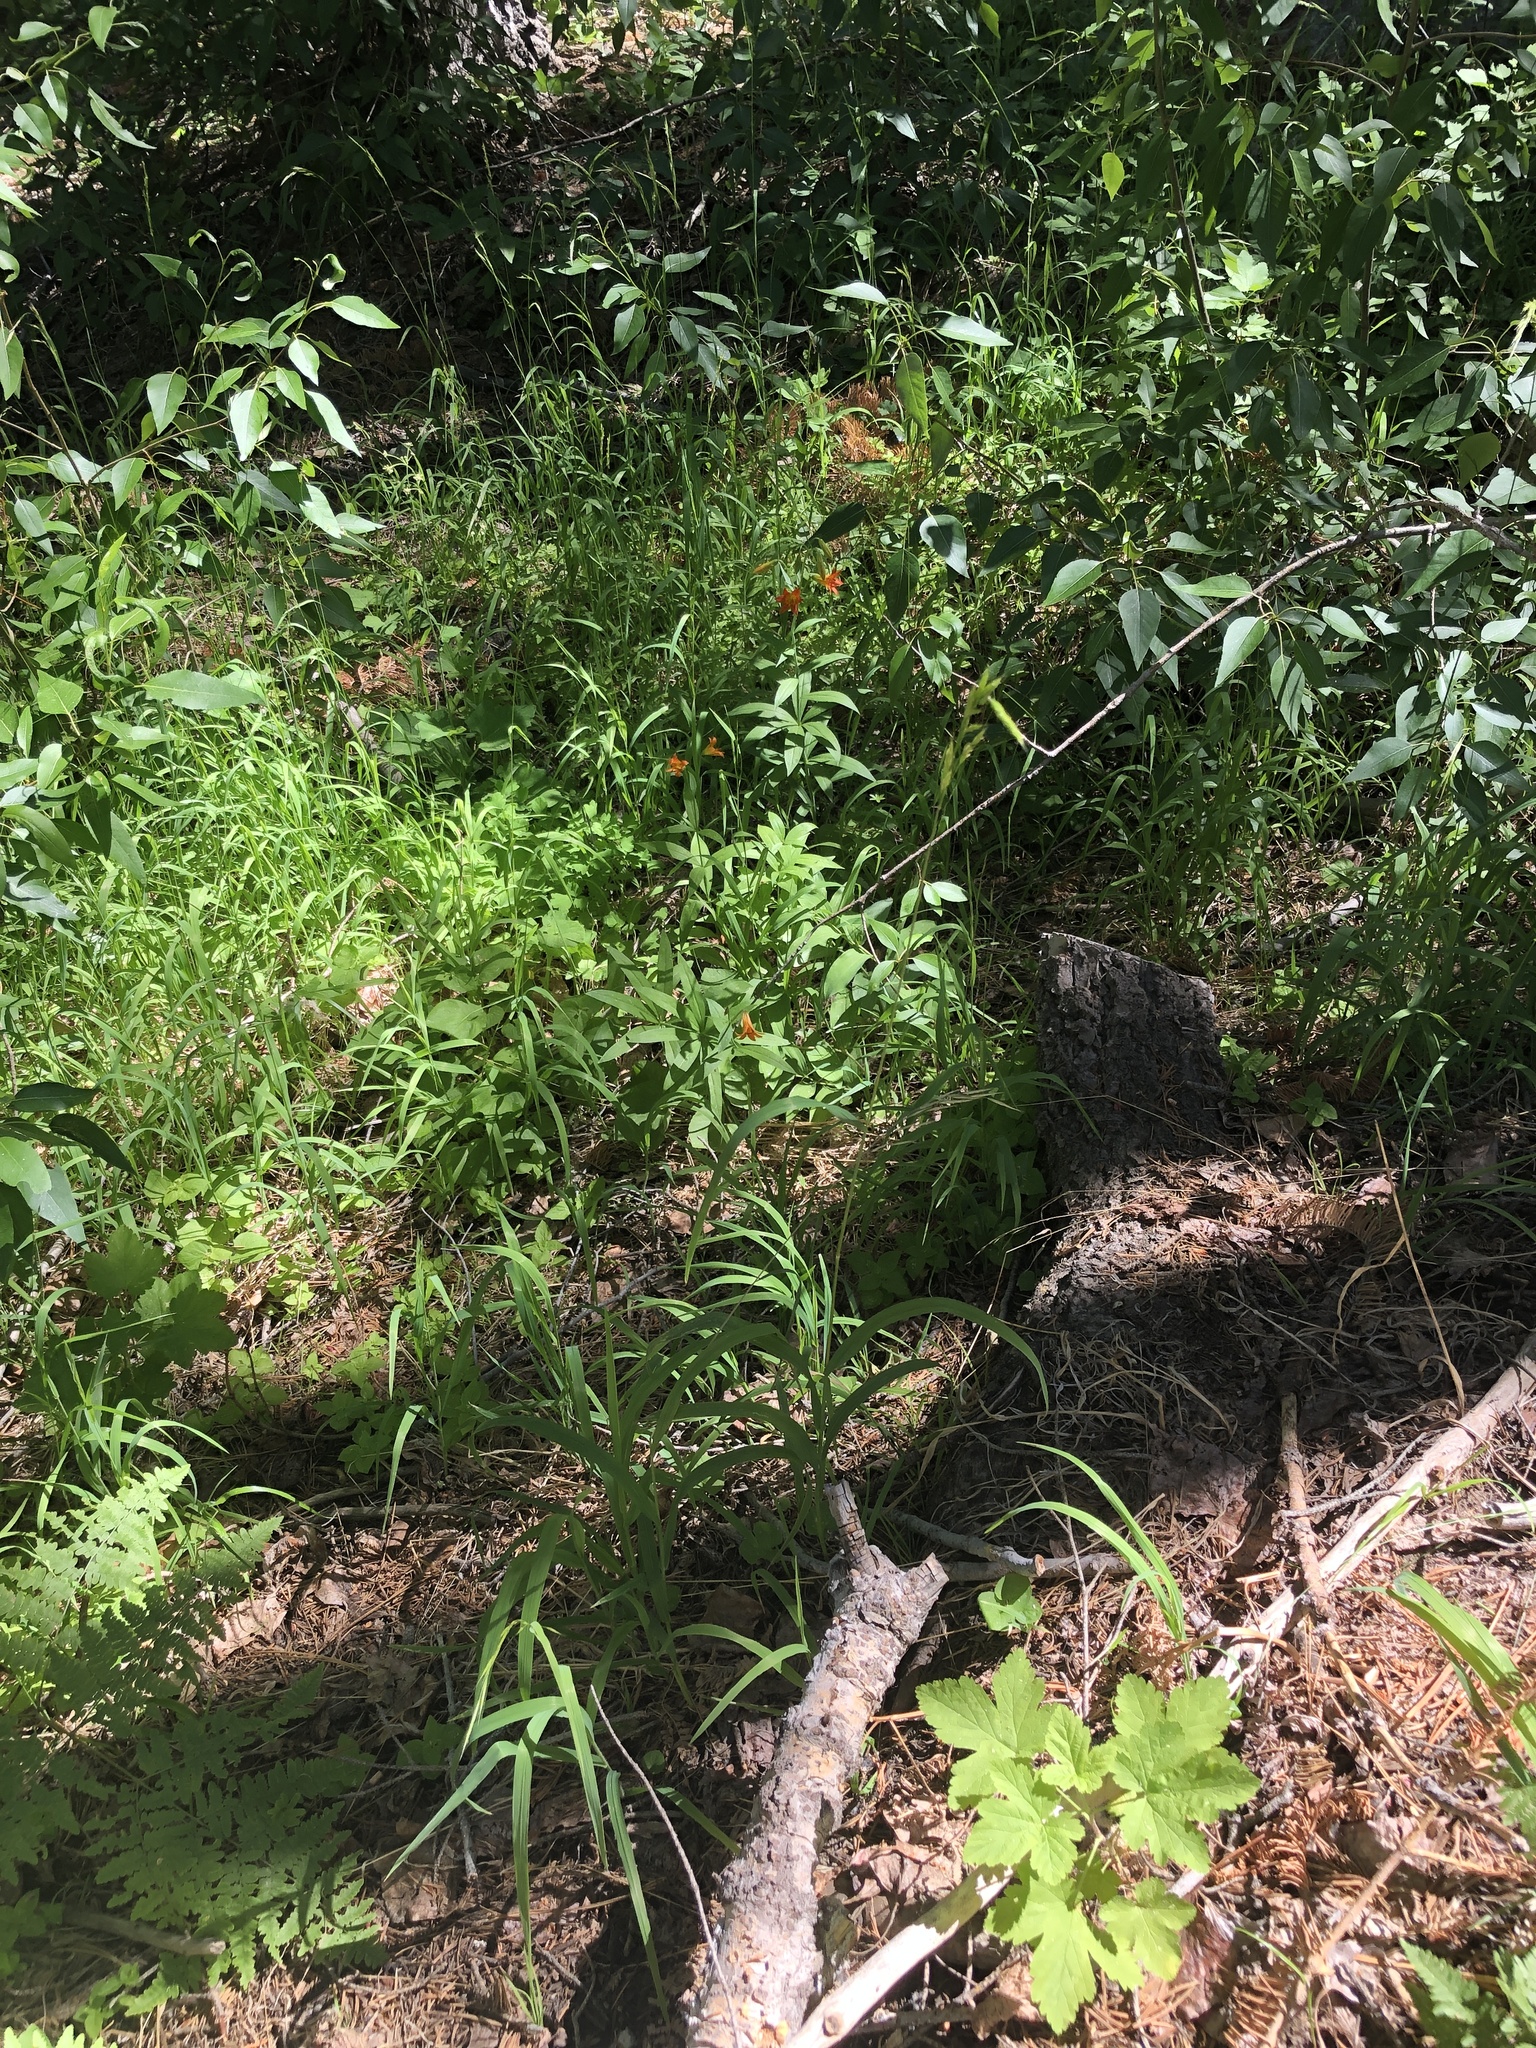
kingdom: Plantae
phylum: Tracheophyta
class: Liliopsida
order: Liliales
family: Liliaceae
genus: Lilium
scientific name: Lilium parvum
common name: Alpine lily
